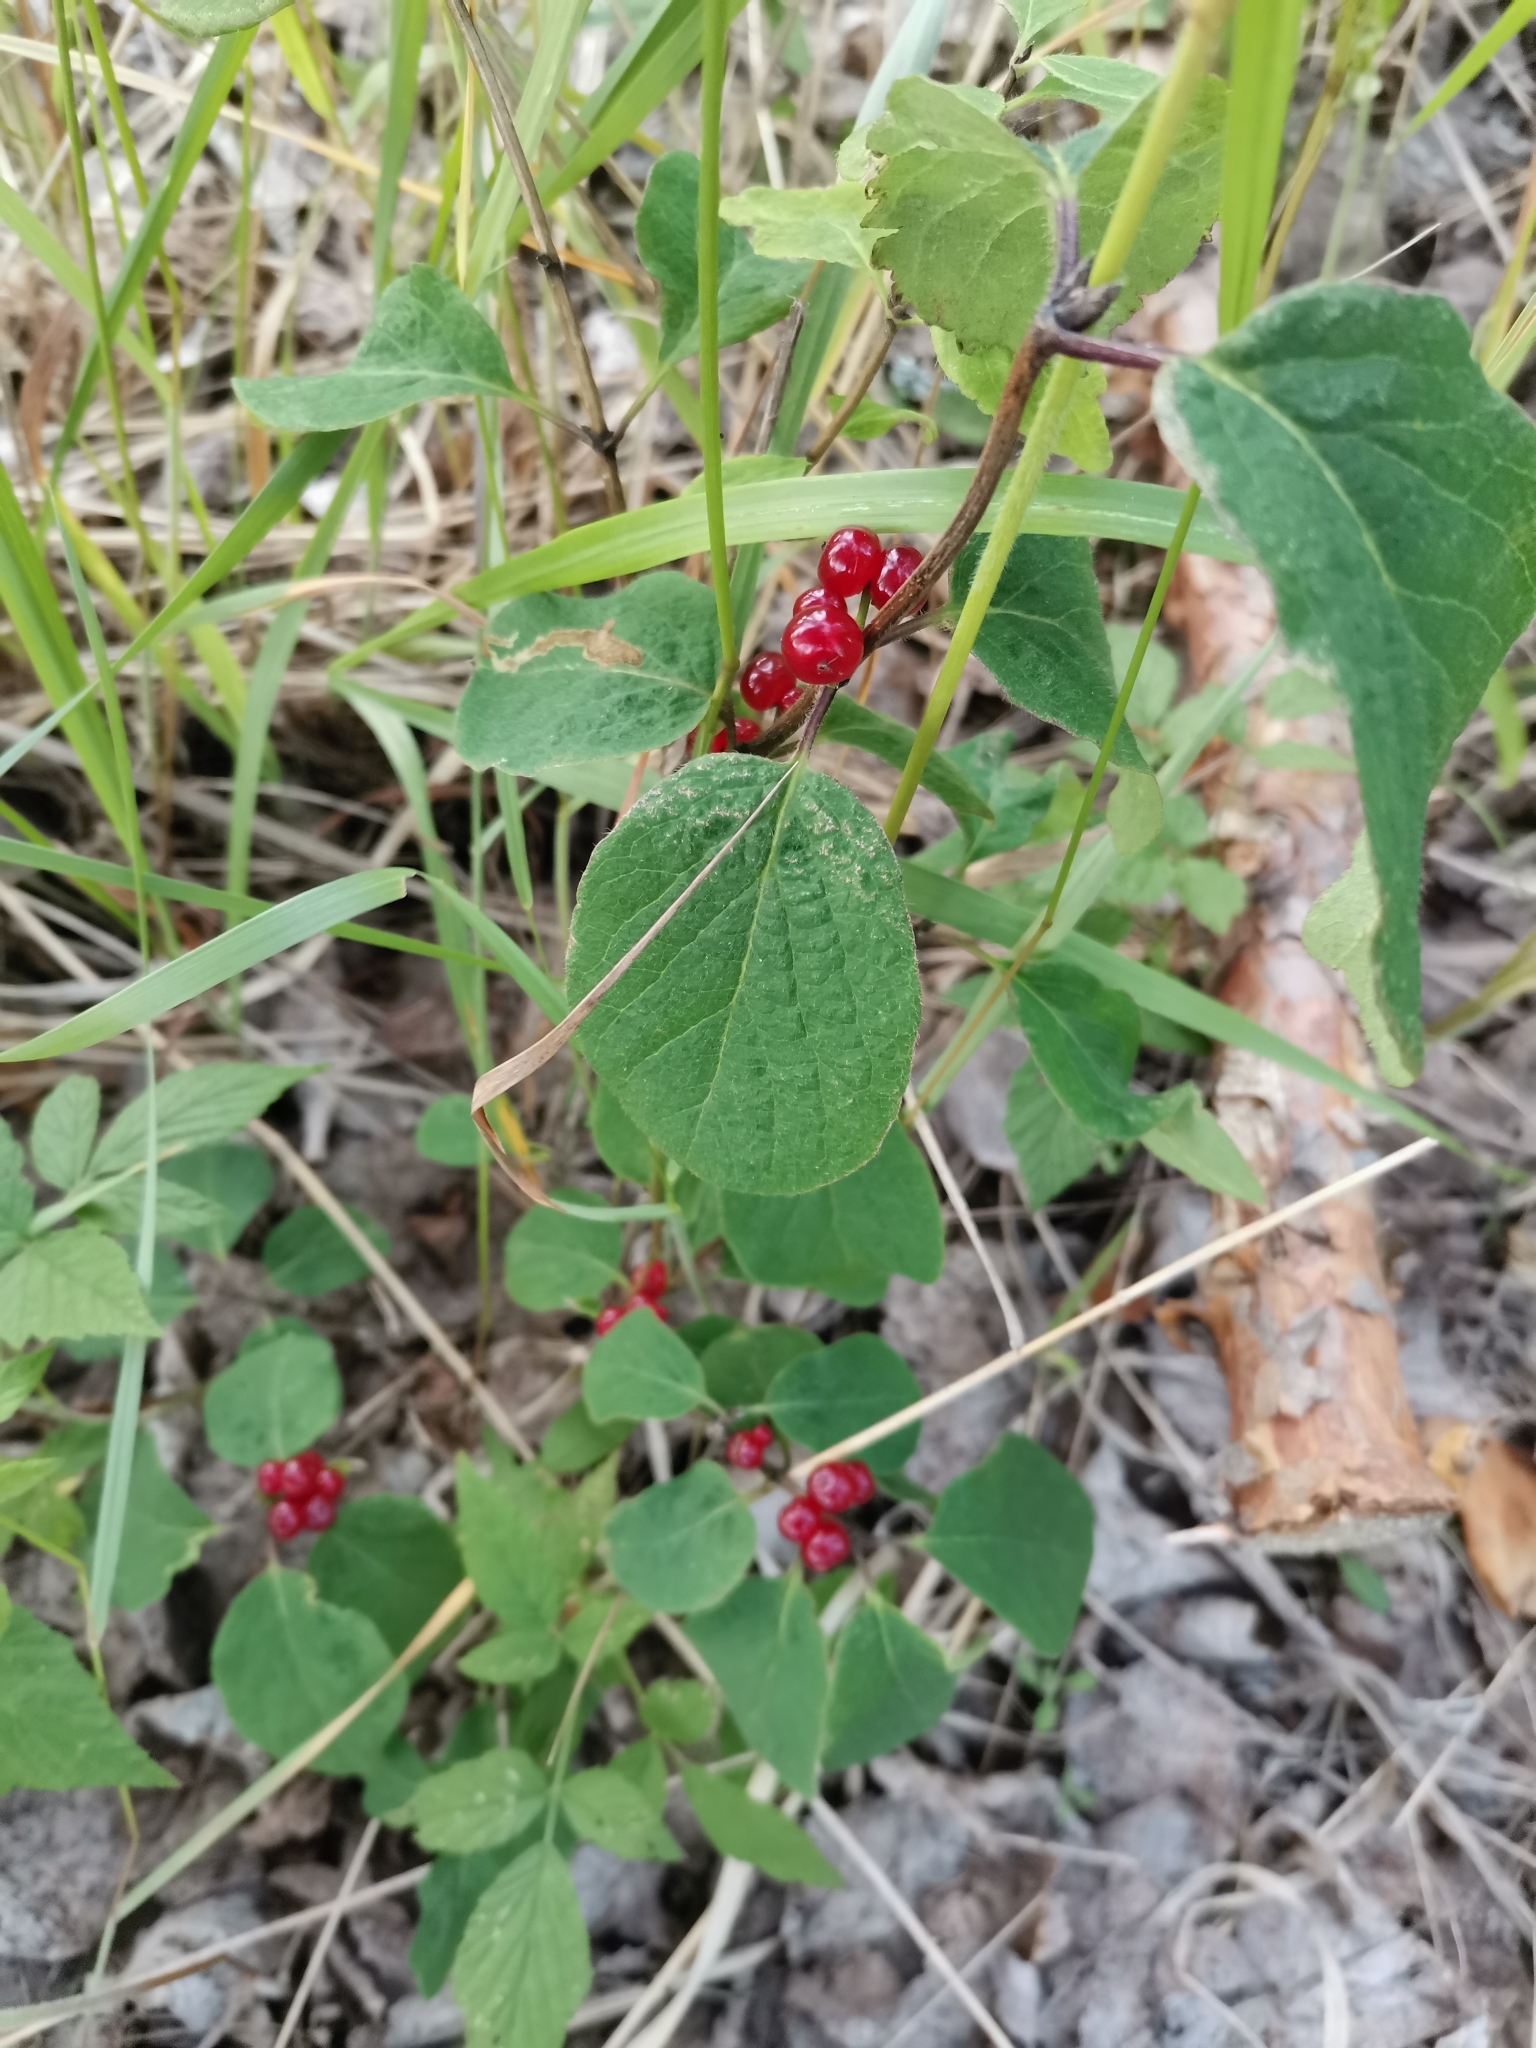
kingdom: Plantae
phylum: Tracheophyta
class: Magnoliopsida
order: Dipsacales
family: Caprifoliaceae
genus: Lonicera
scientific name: Lonicera xylosteum
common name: Fly honeysuckle
